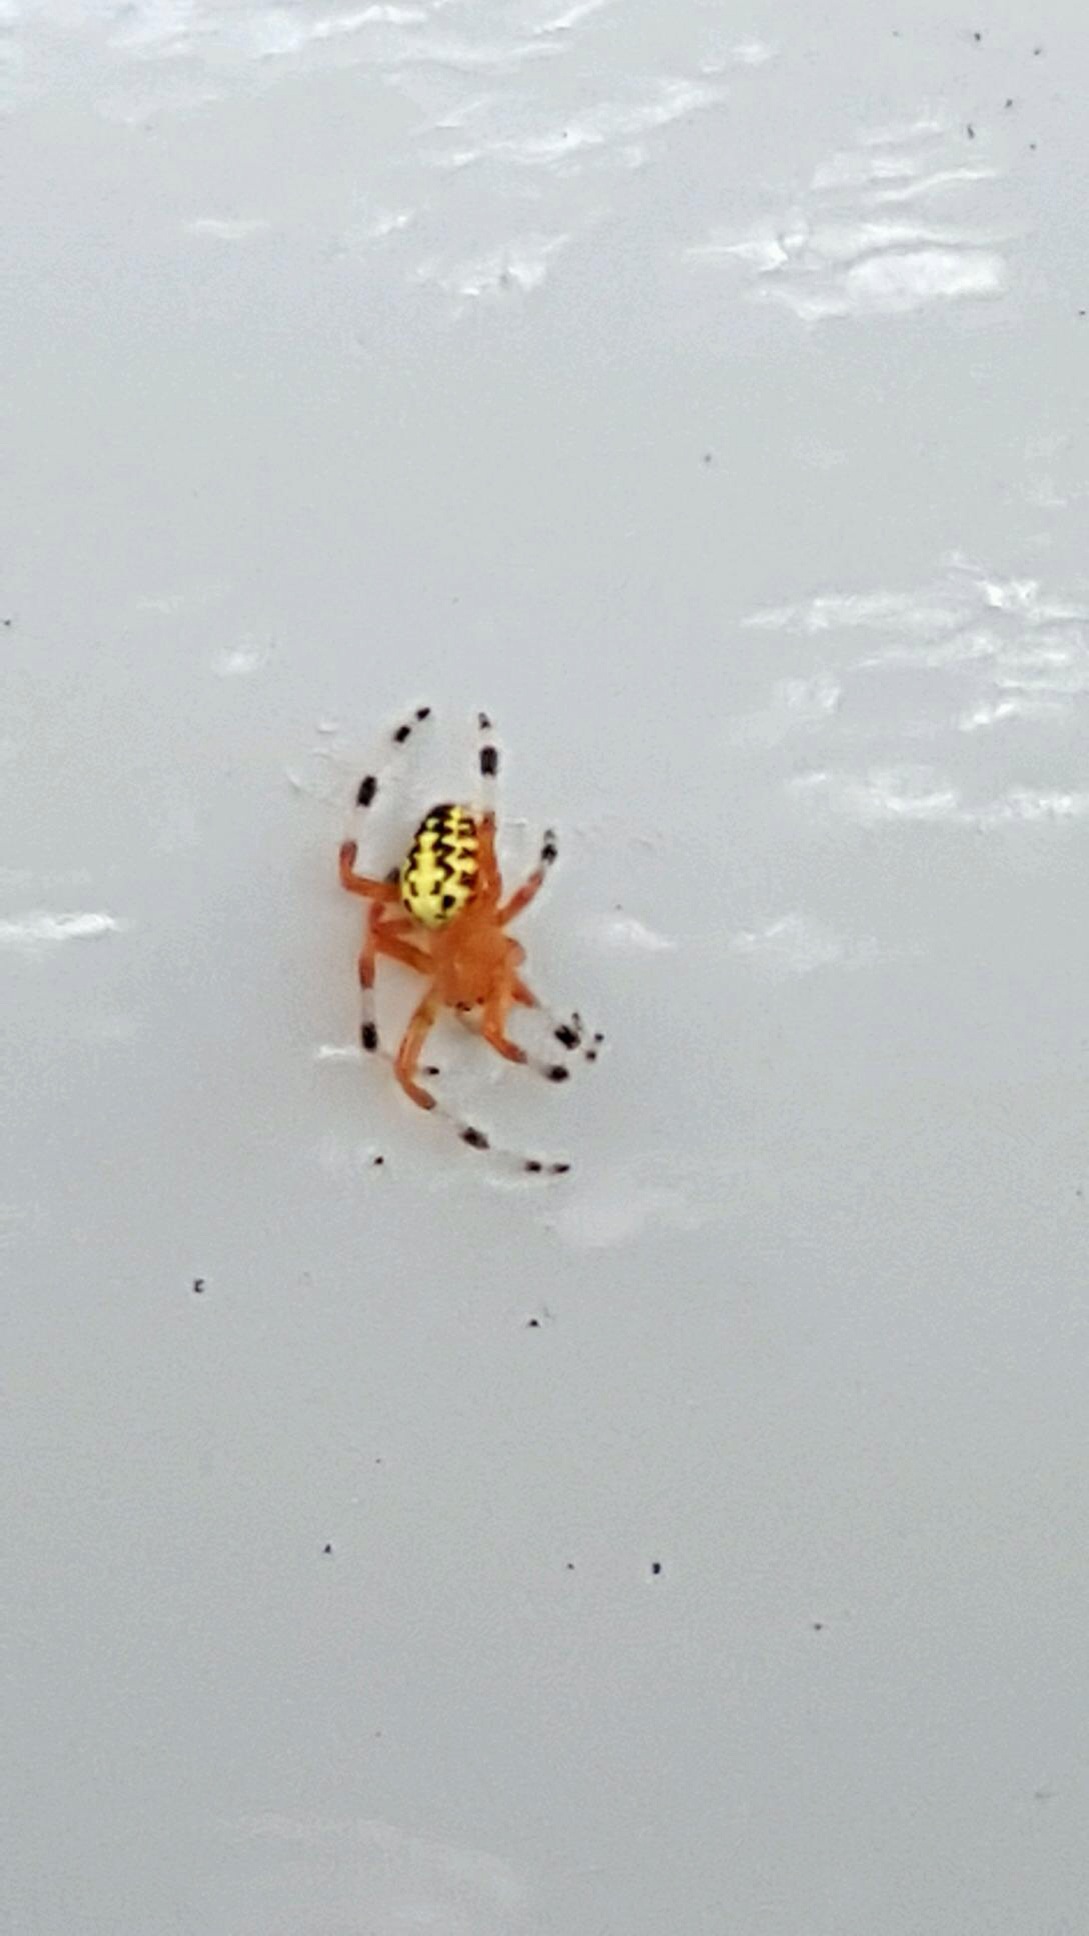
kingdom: Animalia
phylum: Arthropoda
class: Arachnida
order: Araneae
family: Araneidae
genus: Araneus
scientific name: Araneus marmoreus
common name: Marbled orbweaver
